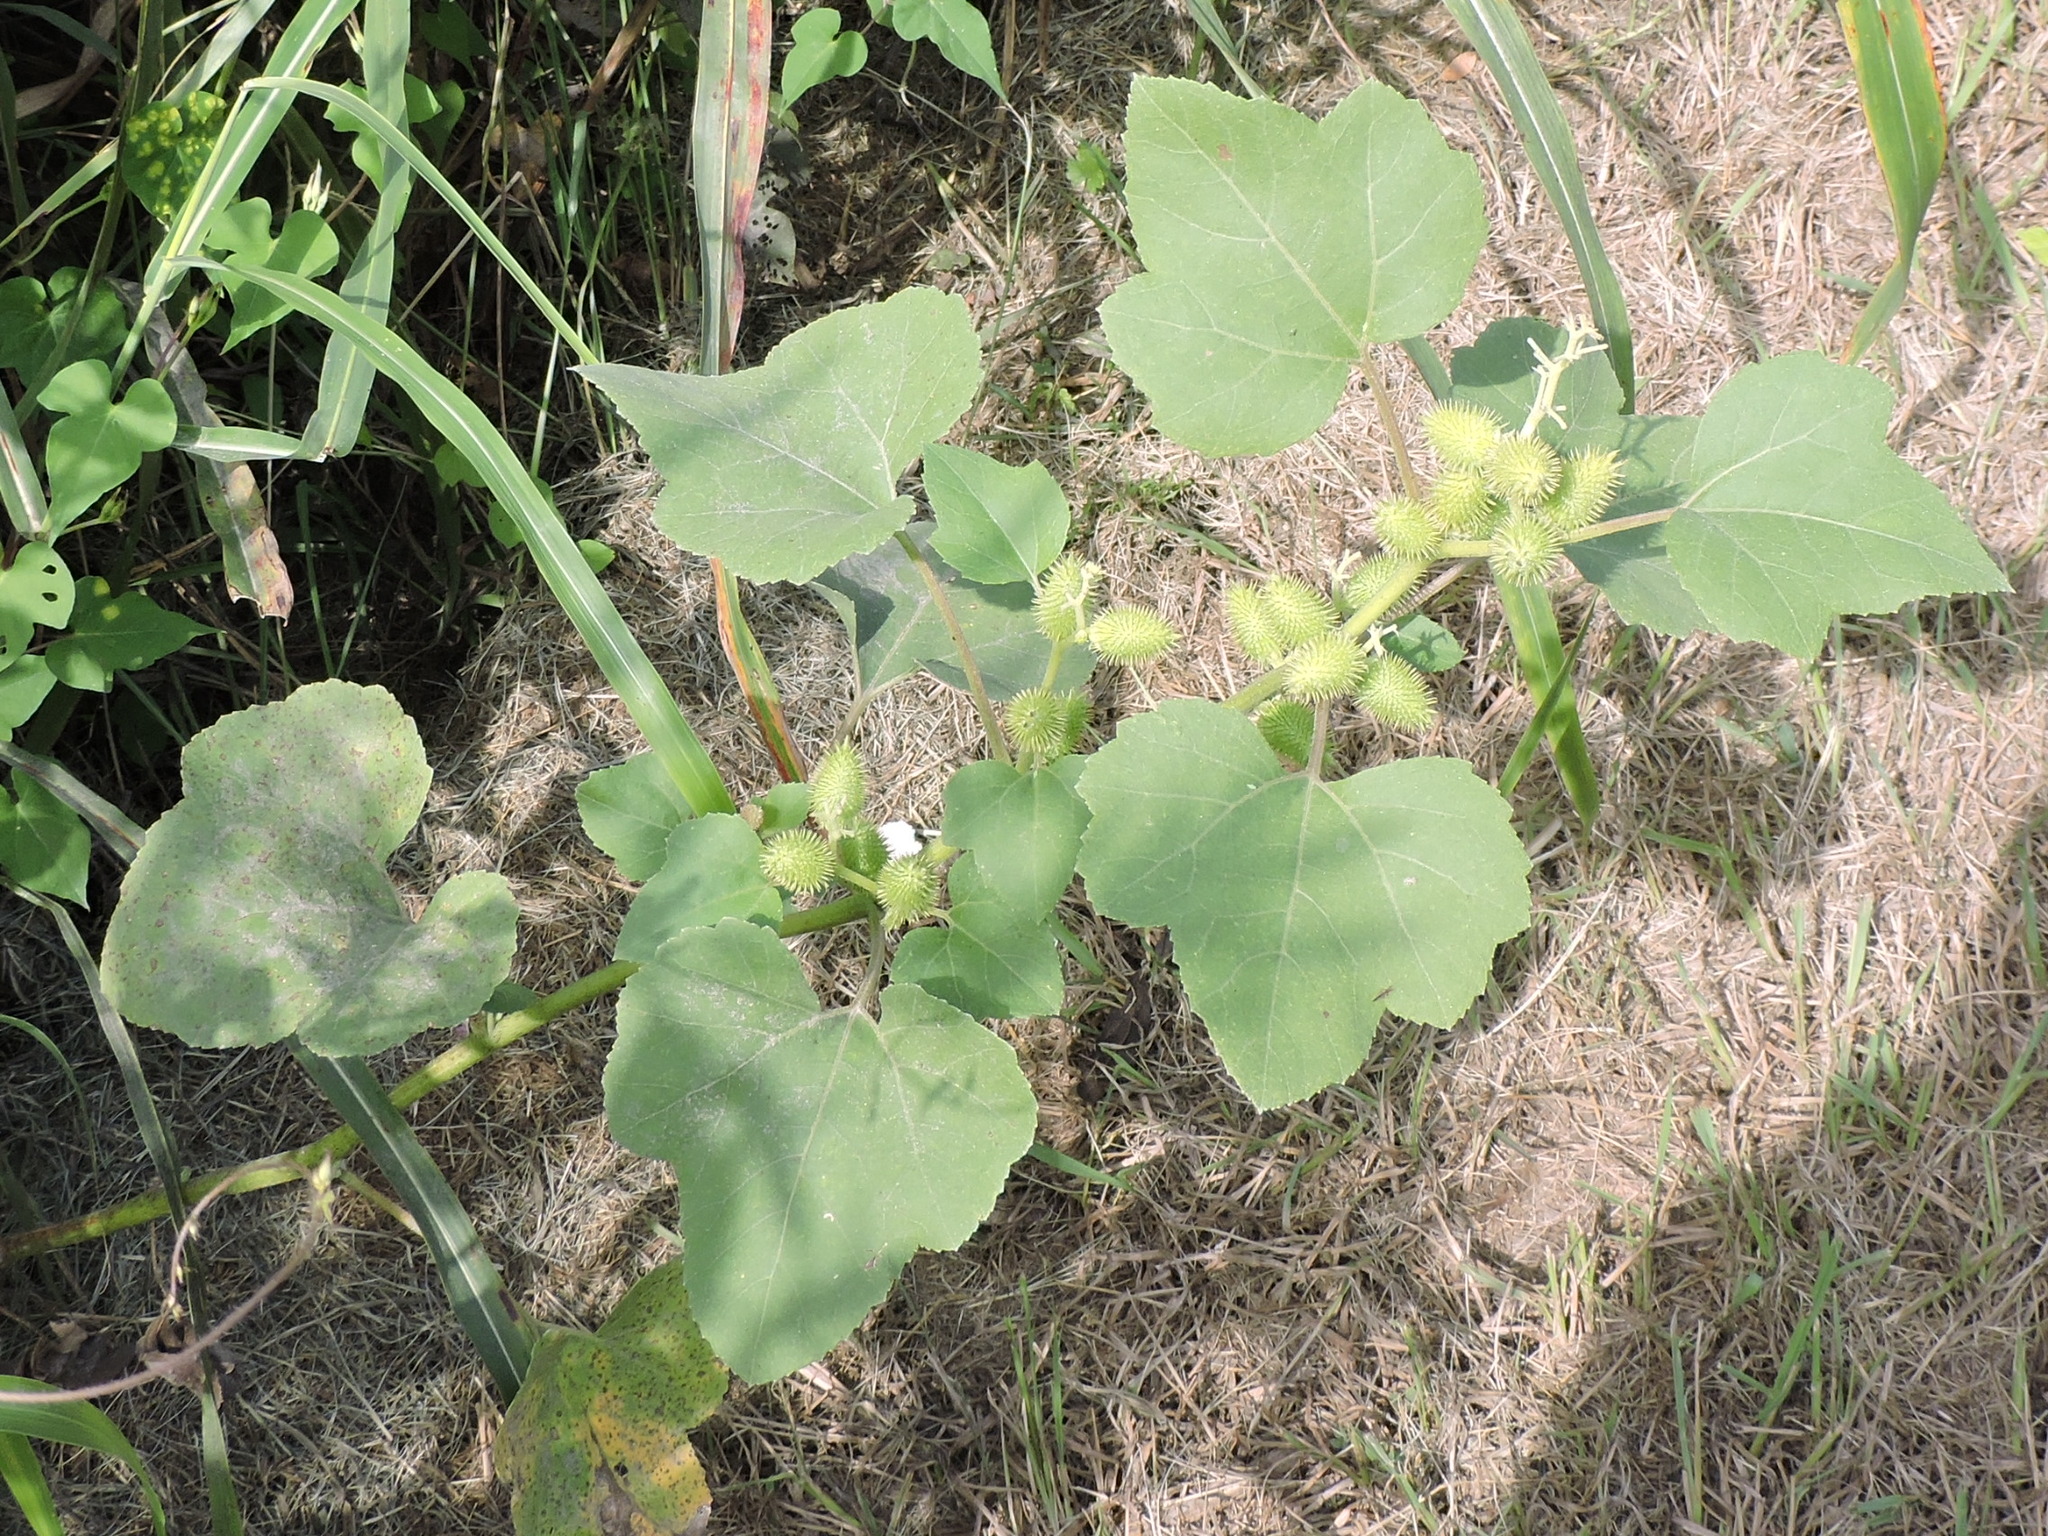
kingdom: Plantae
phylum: Tracheophyta
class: Magnoliopsida
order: Asterales
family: Asteraceae
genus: Xanthium
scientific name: Xanthium strumarium
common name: Rough cocklebur
